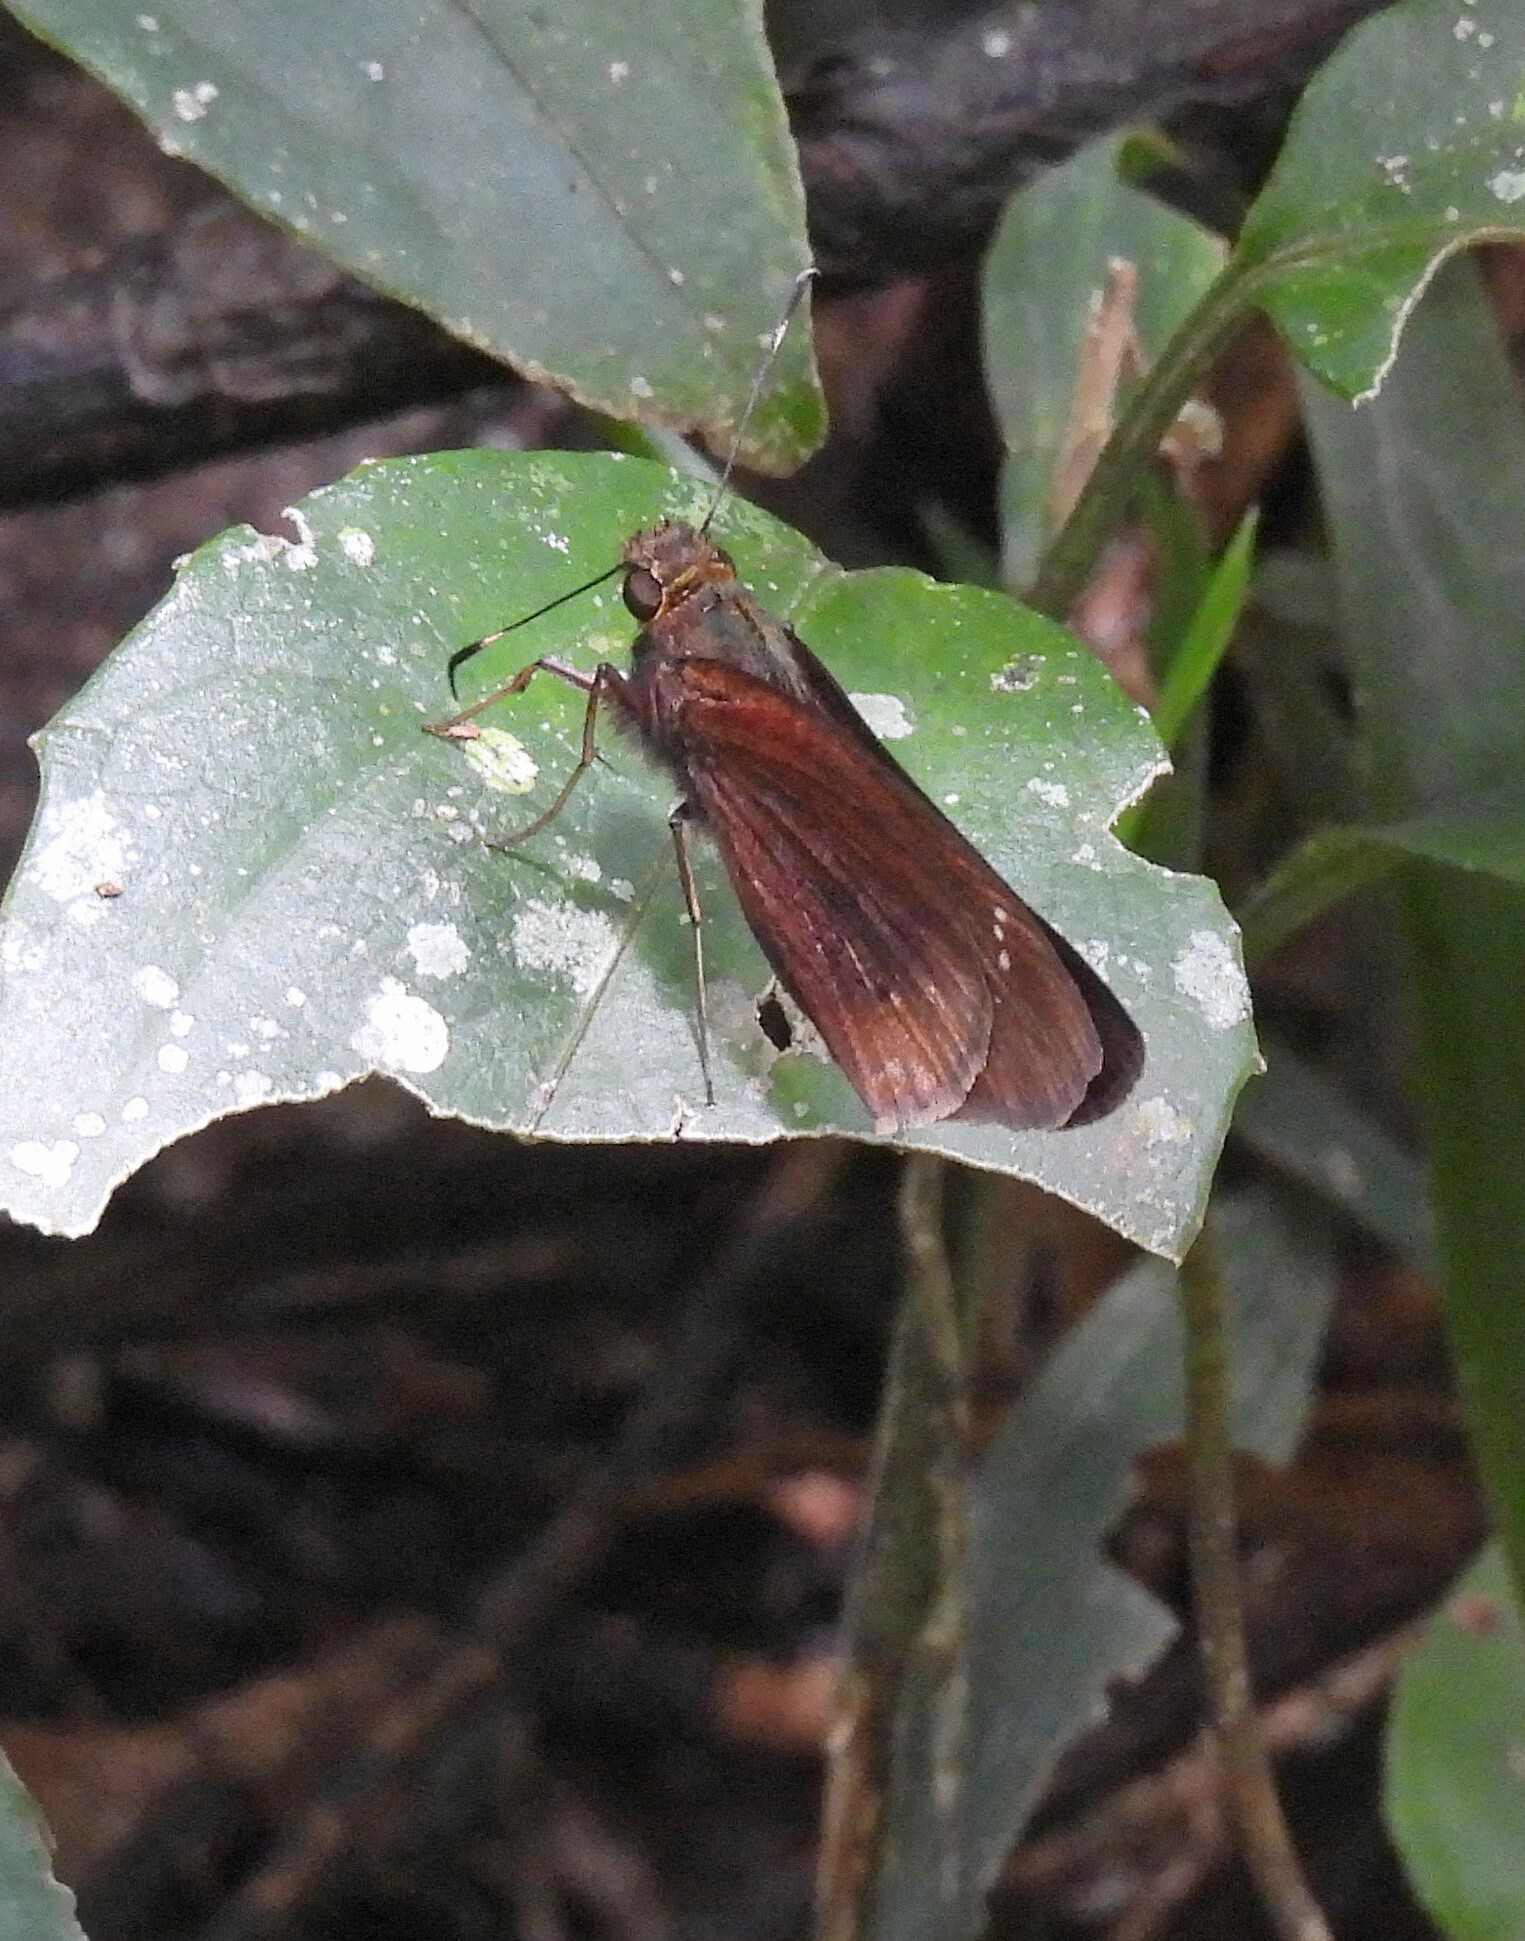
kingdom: Animalia
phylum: Arthropoda
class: Insecta
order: Lepidoptera
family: Hesperiidae
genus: Panoquina
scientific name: Panoquina ocola
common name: Ocola skipper
